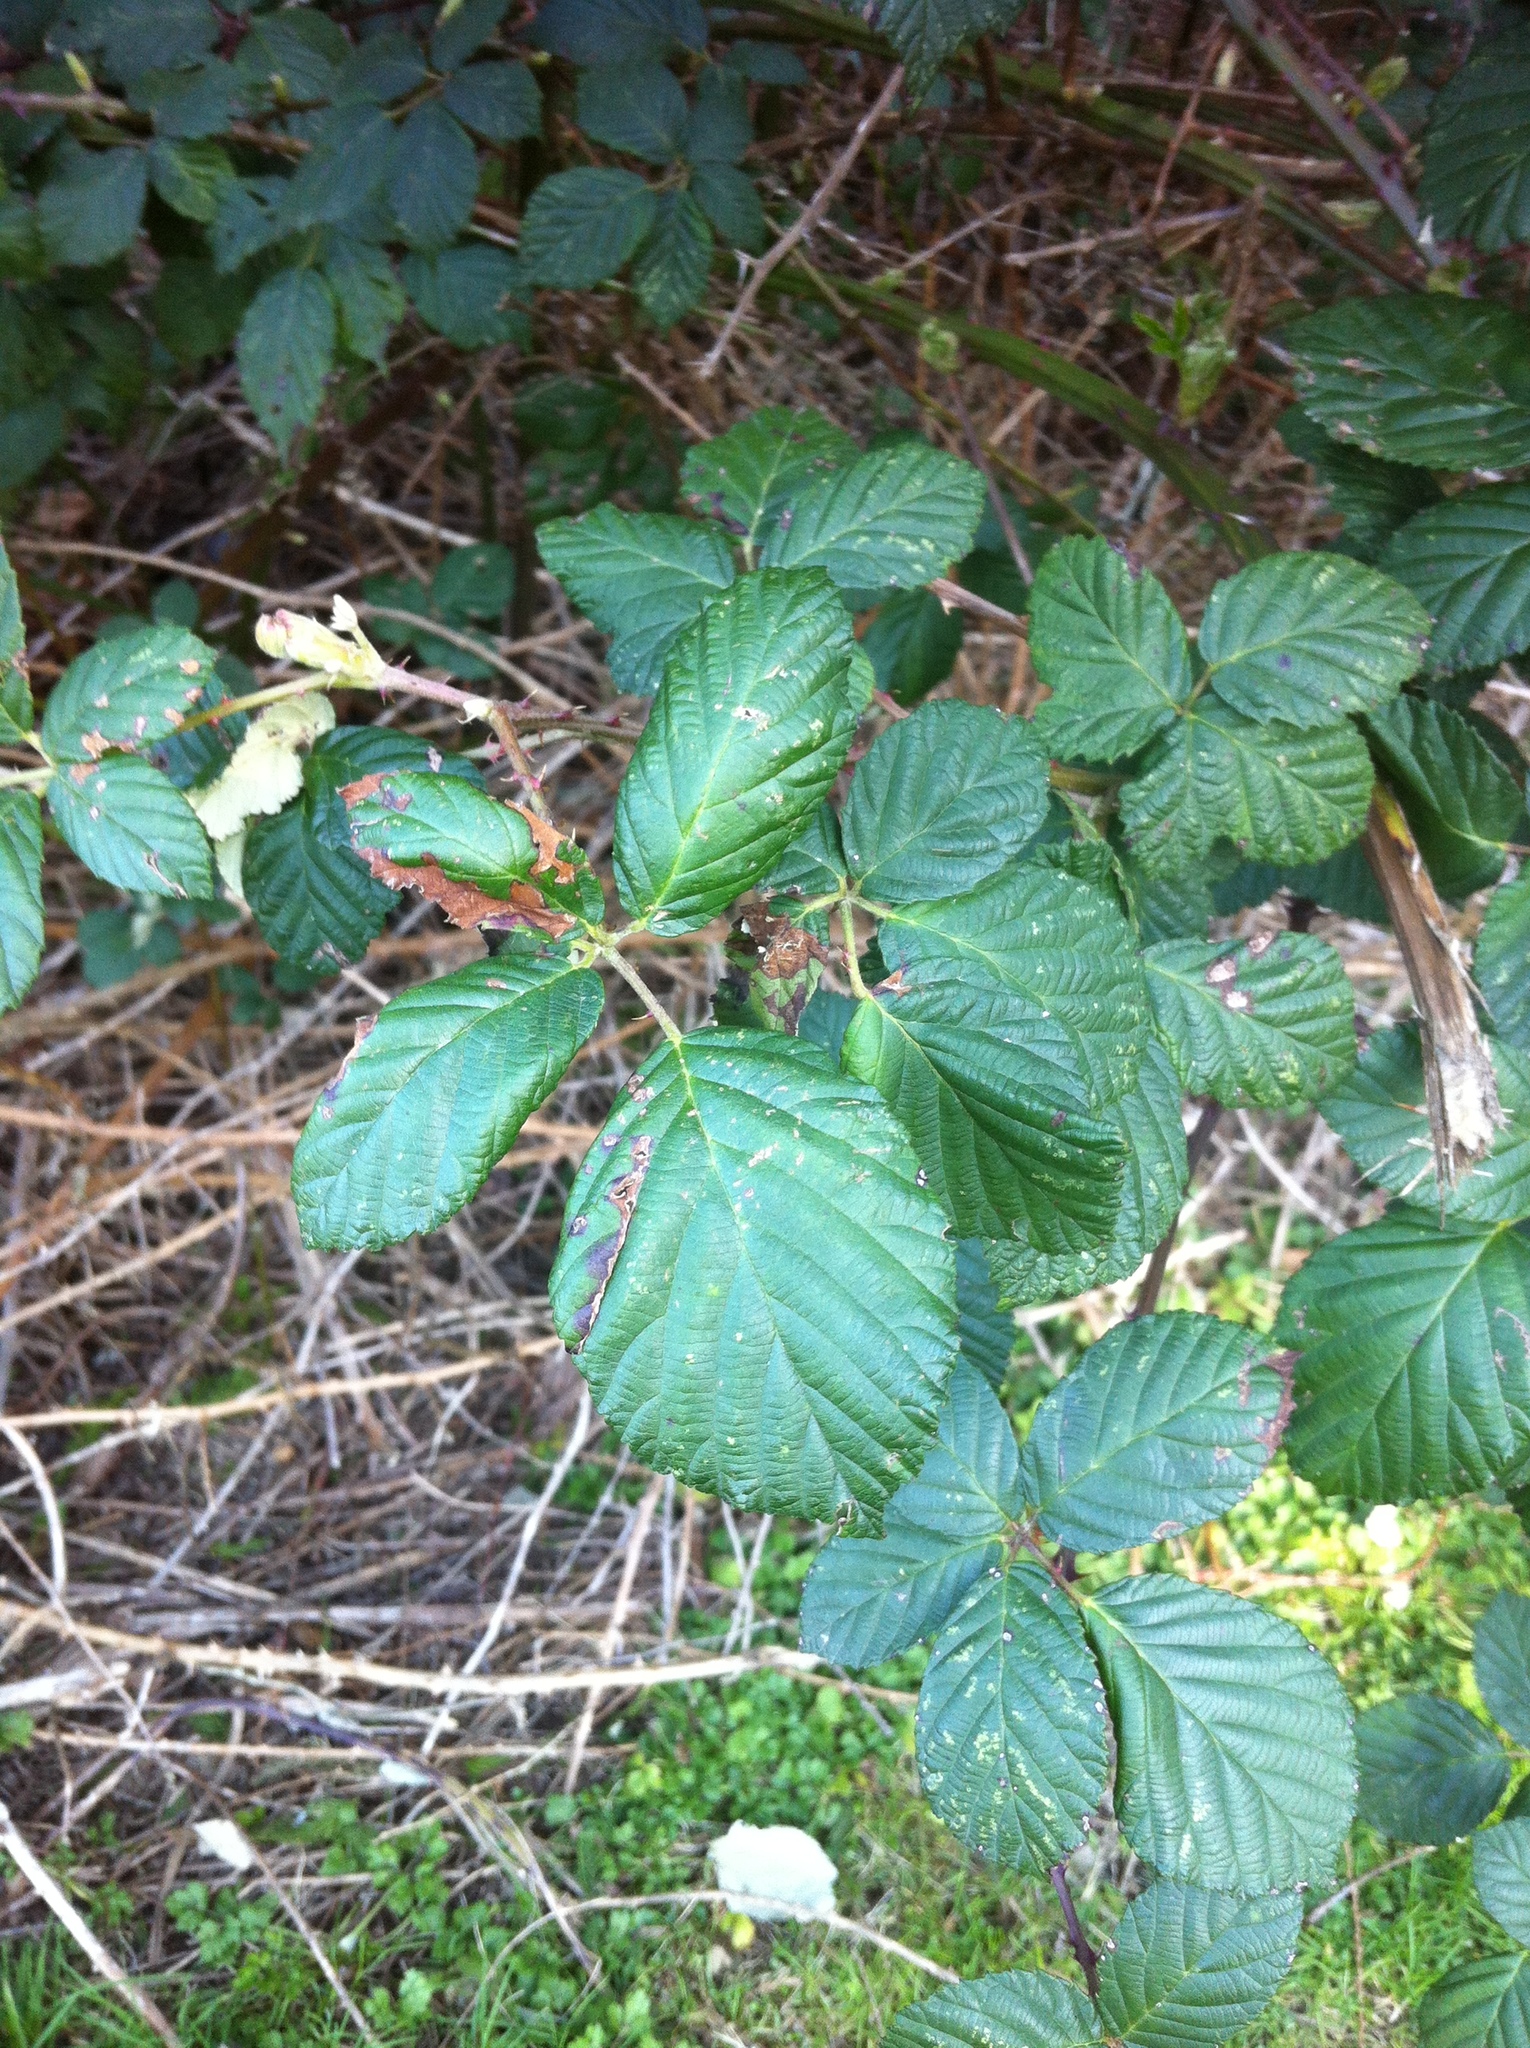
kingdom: Plantae
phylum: Tracheophyta
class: Magnoliopsida
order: Rosales
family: Rosaceae
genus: Rubus
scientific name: Rubus bifrons
